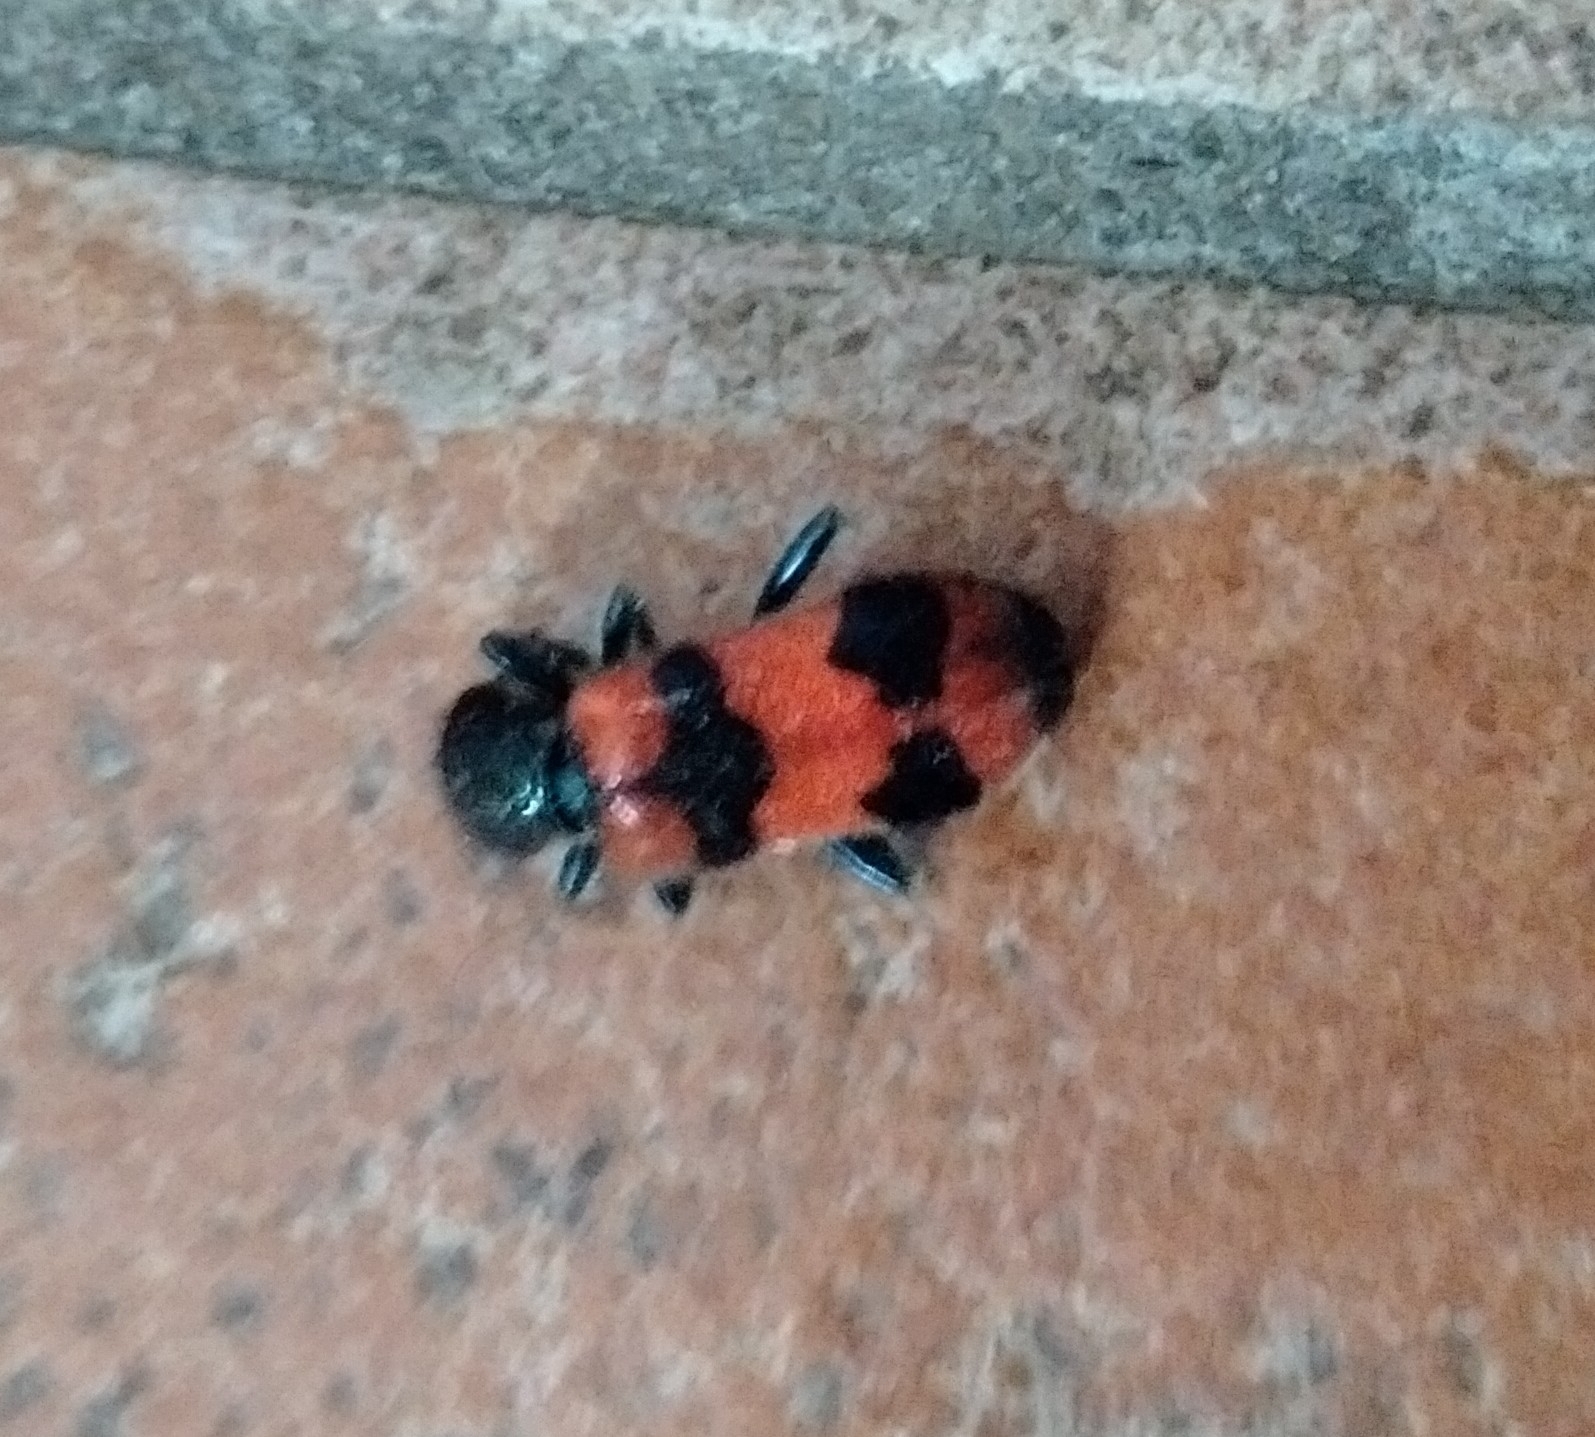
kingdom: Animalia
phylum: Arthropoda
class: Insecta
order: Coleoptera
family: Cleridae
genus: Trichodes
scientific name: Trichodes apiarius
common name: Bee-eating beetle
